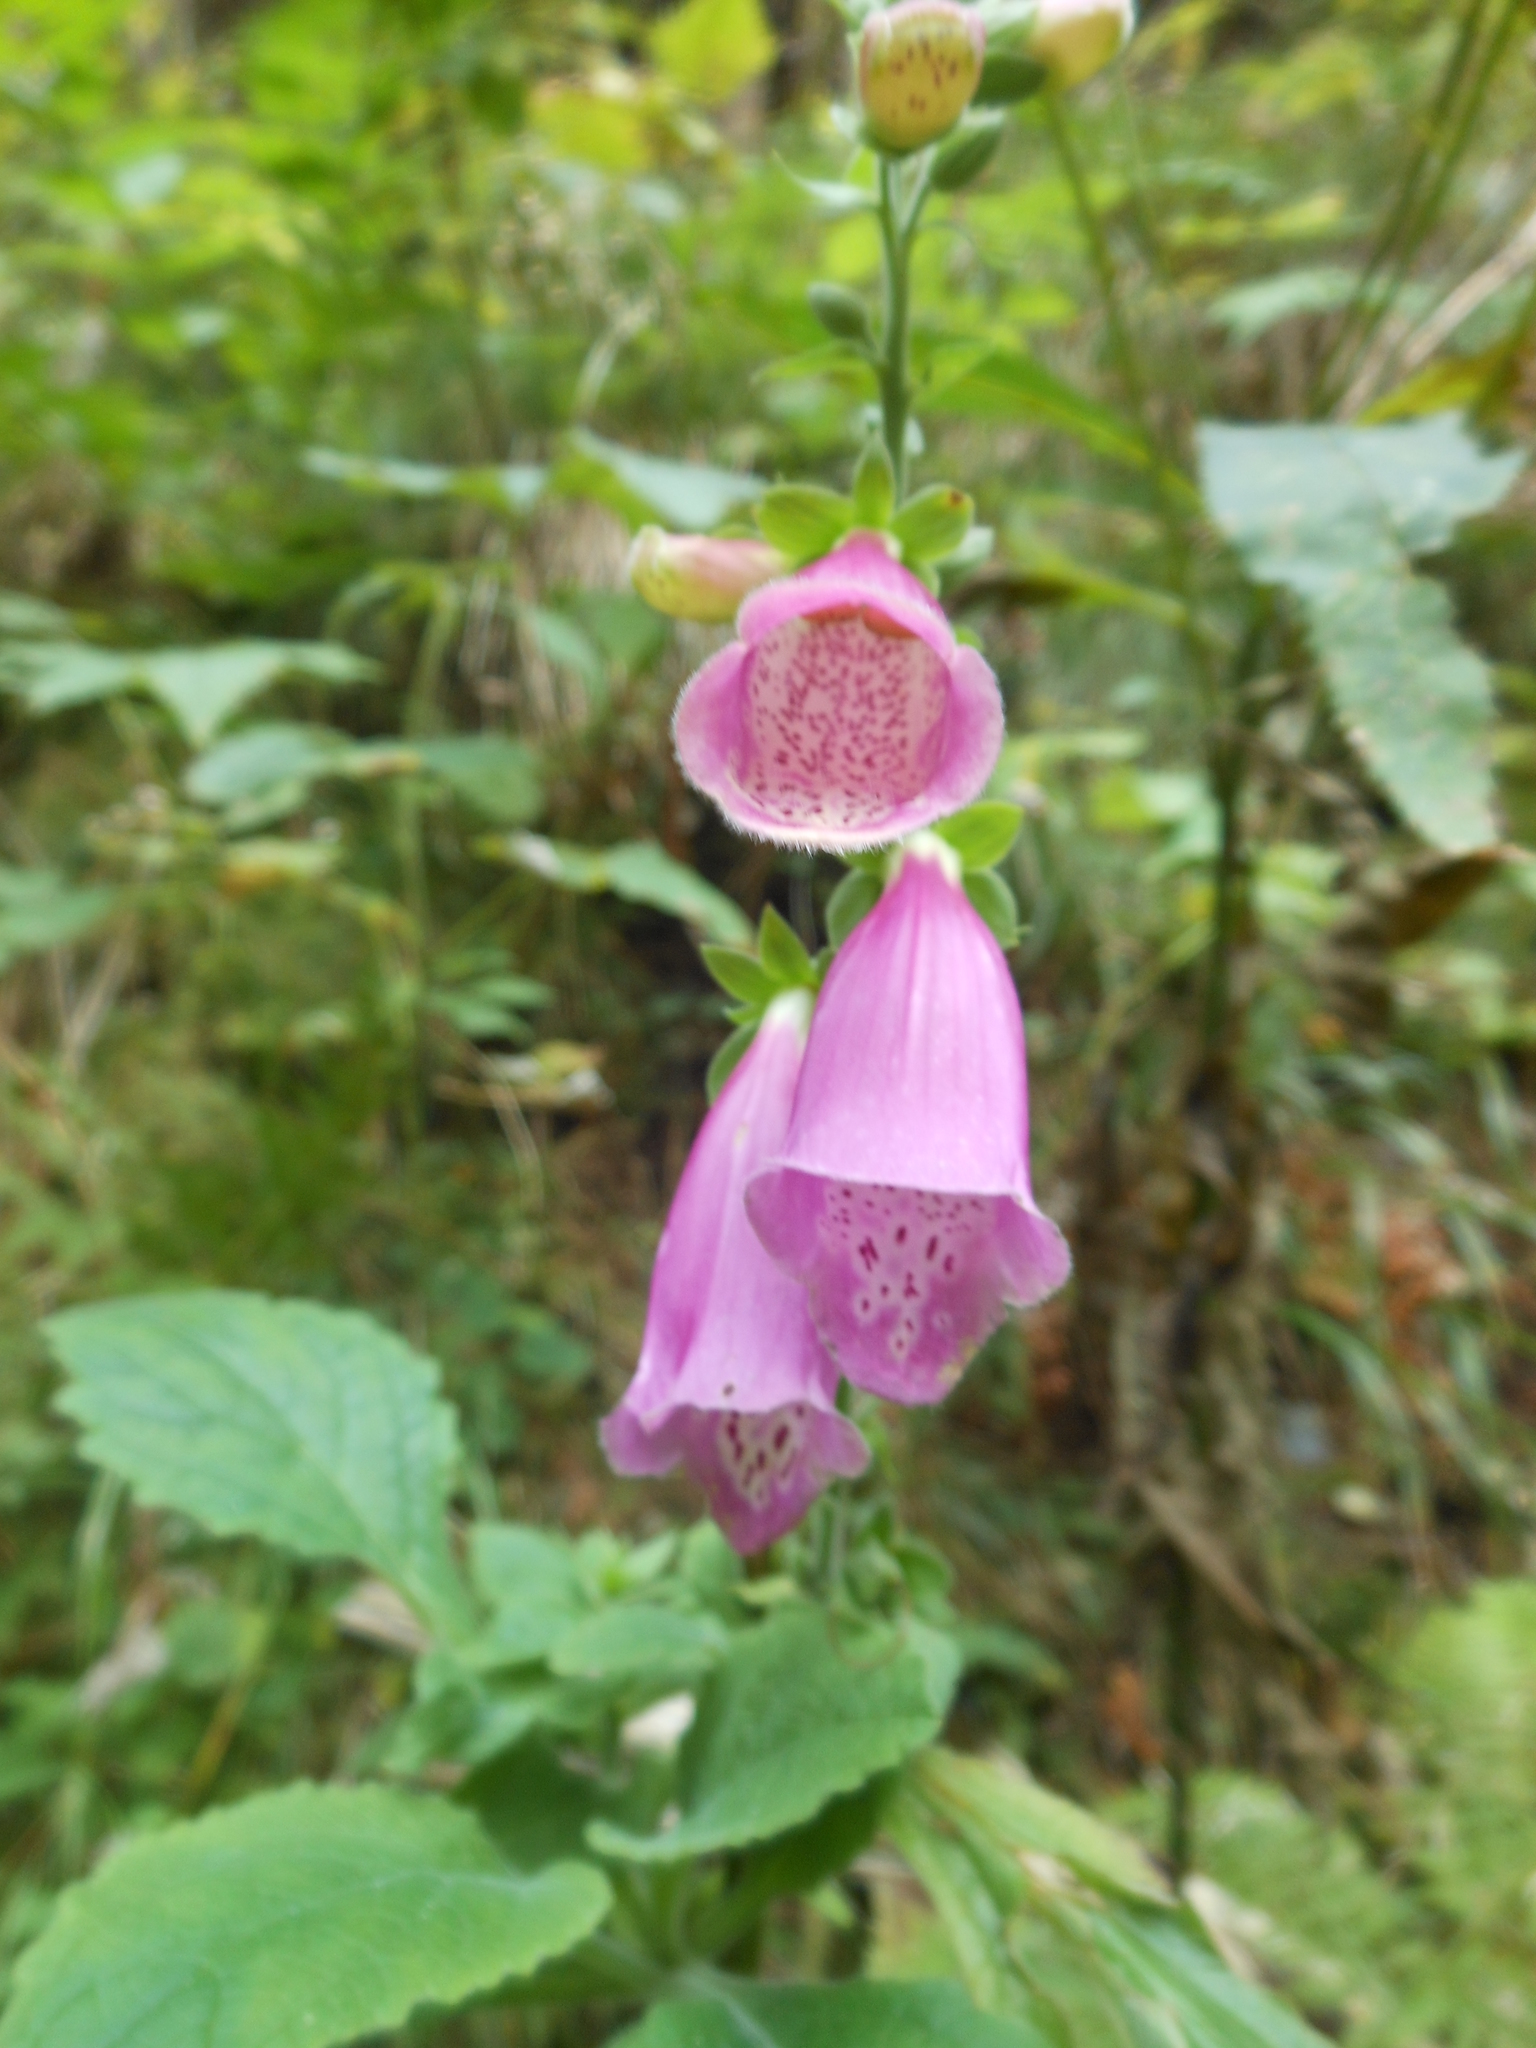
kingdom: Plantae
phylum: Tracheophyta
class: Magnoliopsida
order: Lamiales
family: Plantaginaceae
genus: Digitalis
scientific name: Digitalis purpurea
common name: Foxglove
